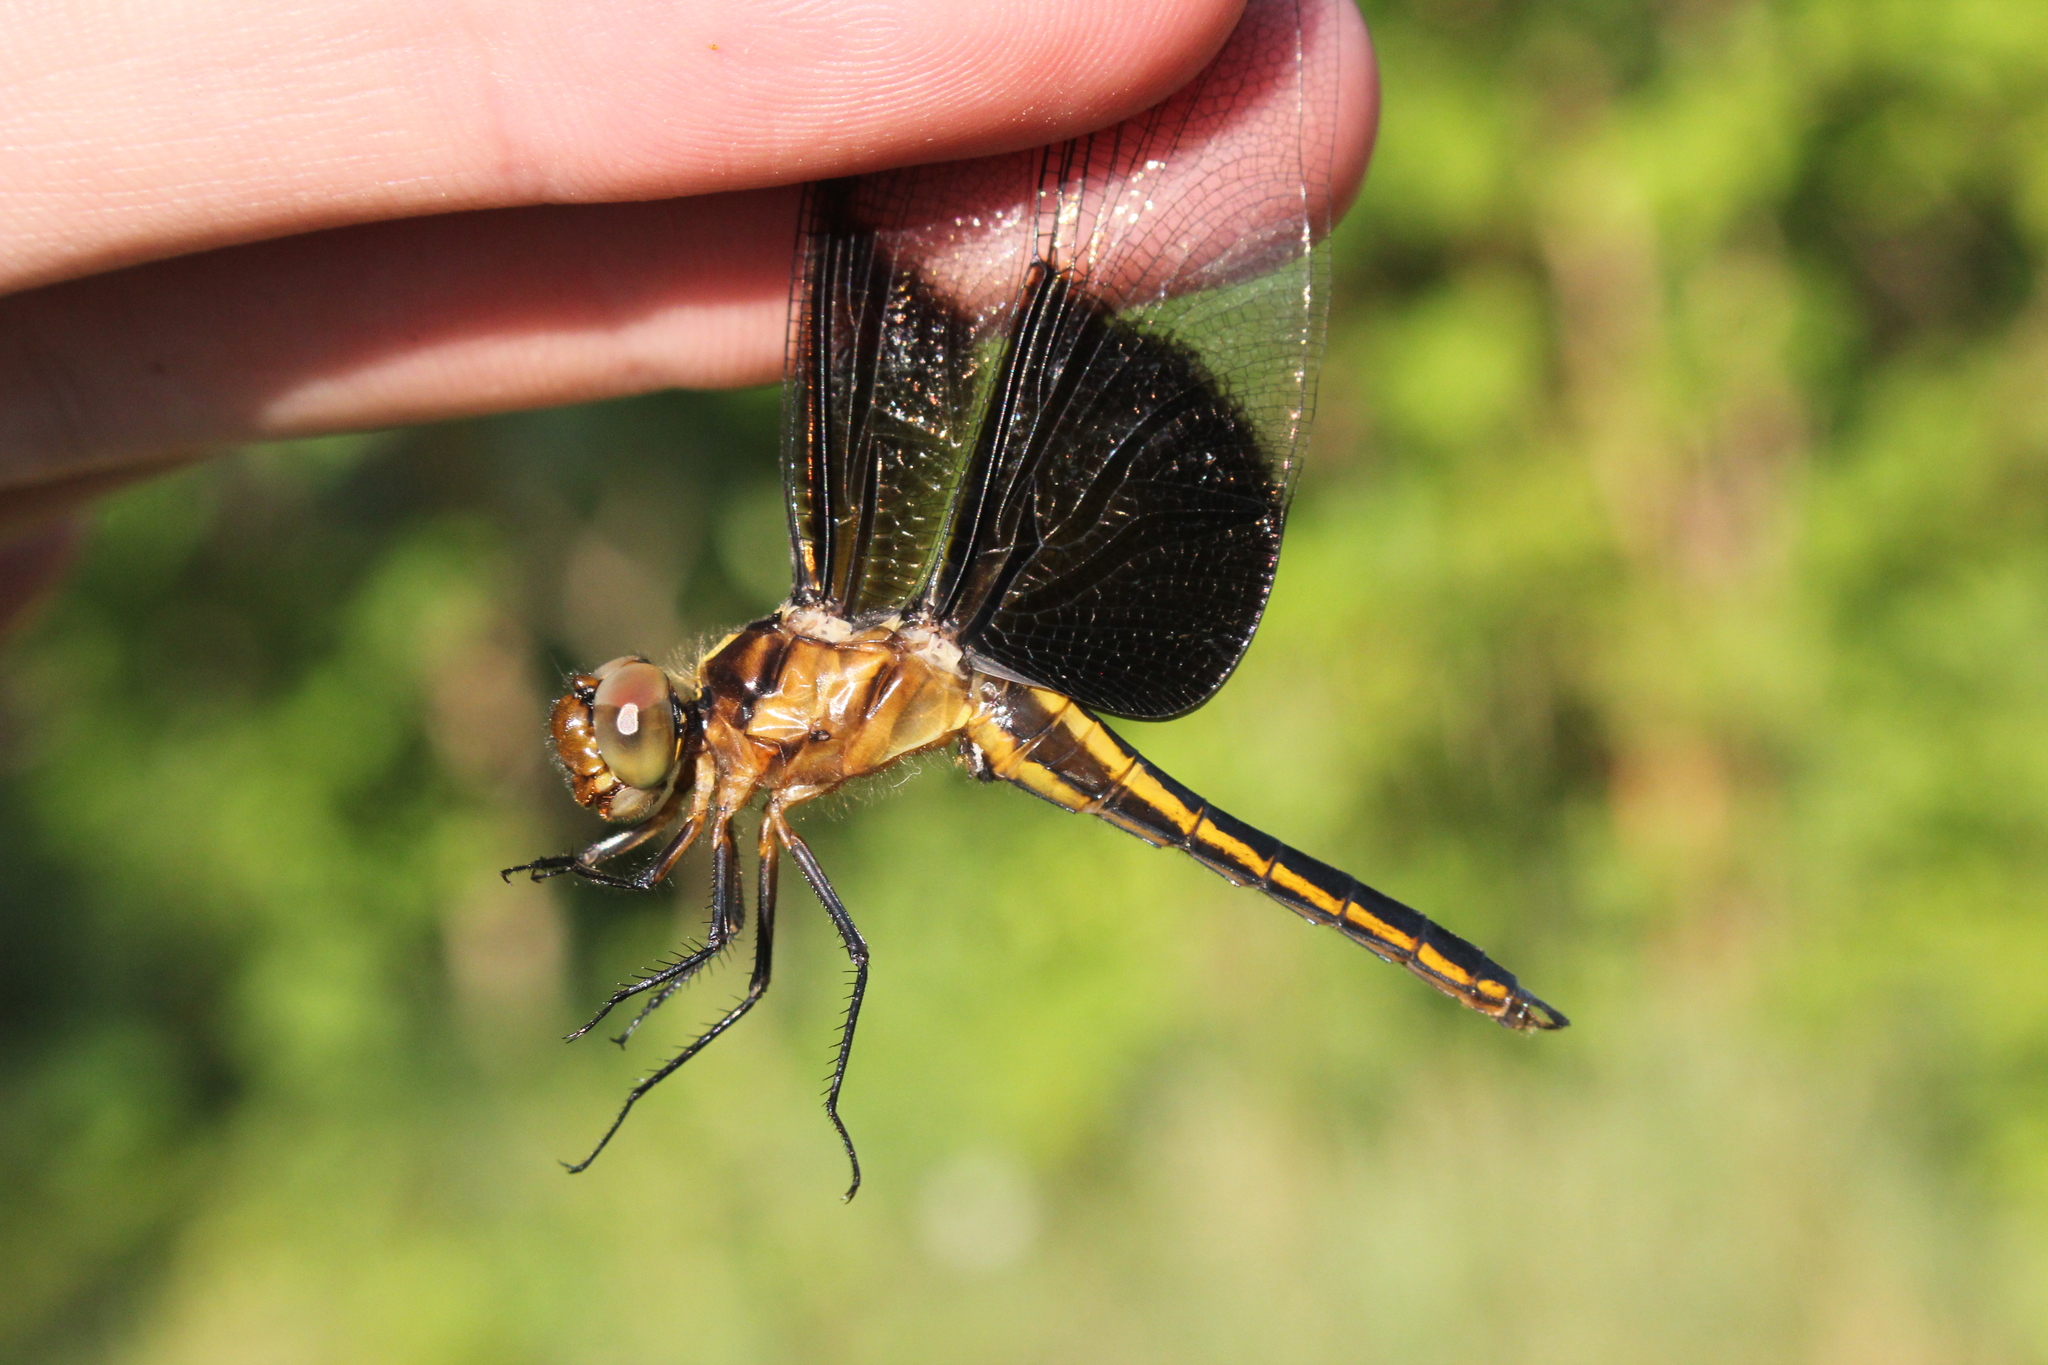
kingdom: Animalia
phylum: Arthropoda
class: Insecta
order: Odonata
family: Libellulidae
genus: Libellula
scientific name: Libellula luctuosa
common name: Widow skimmer
